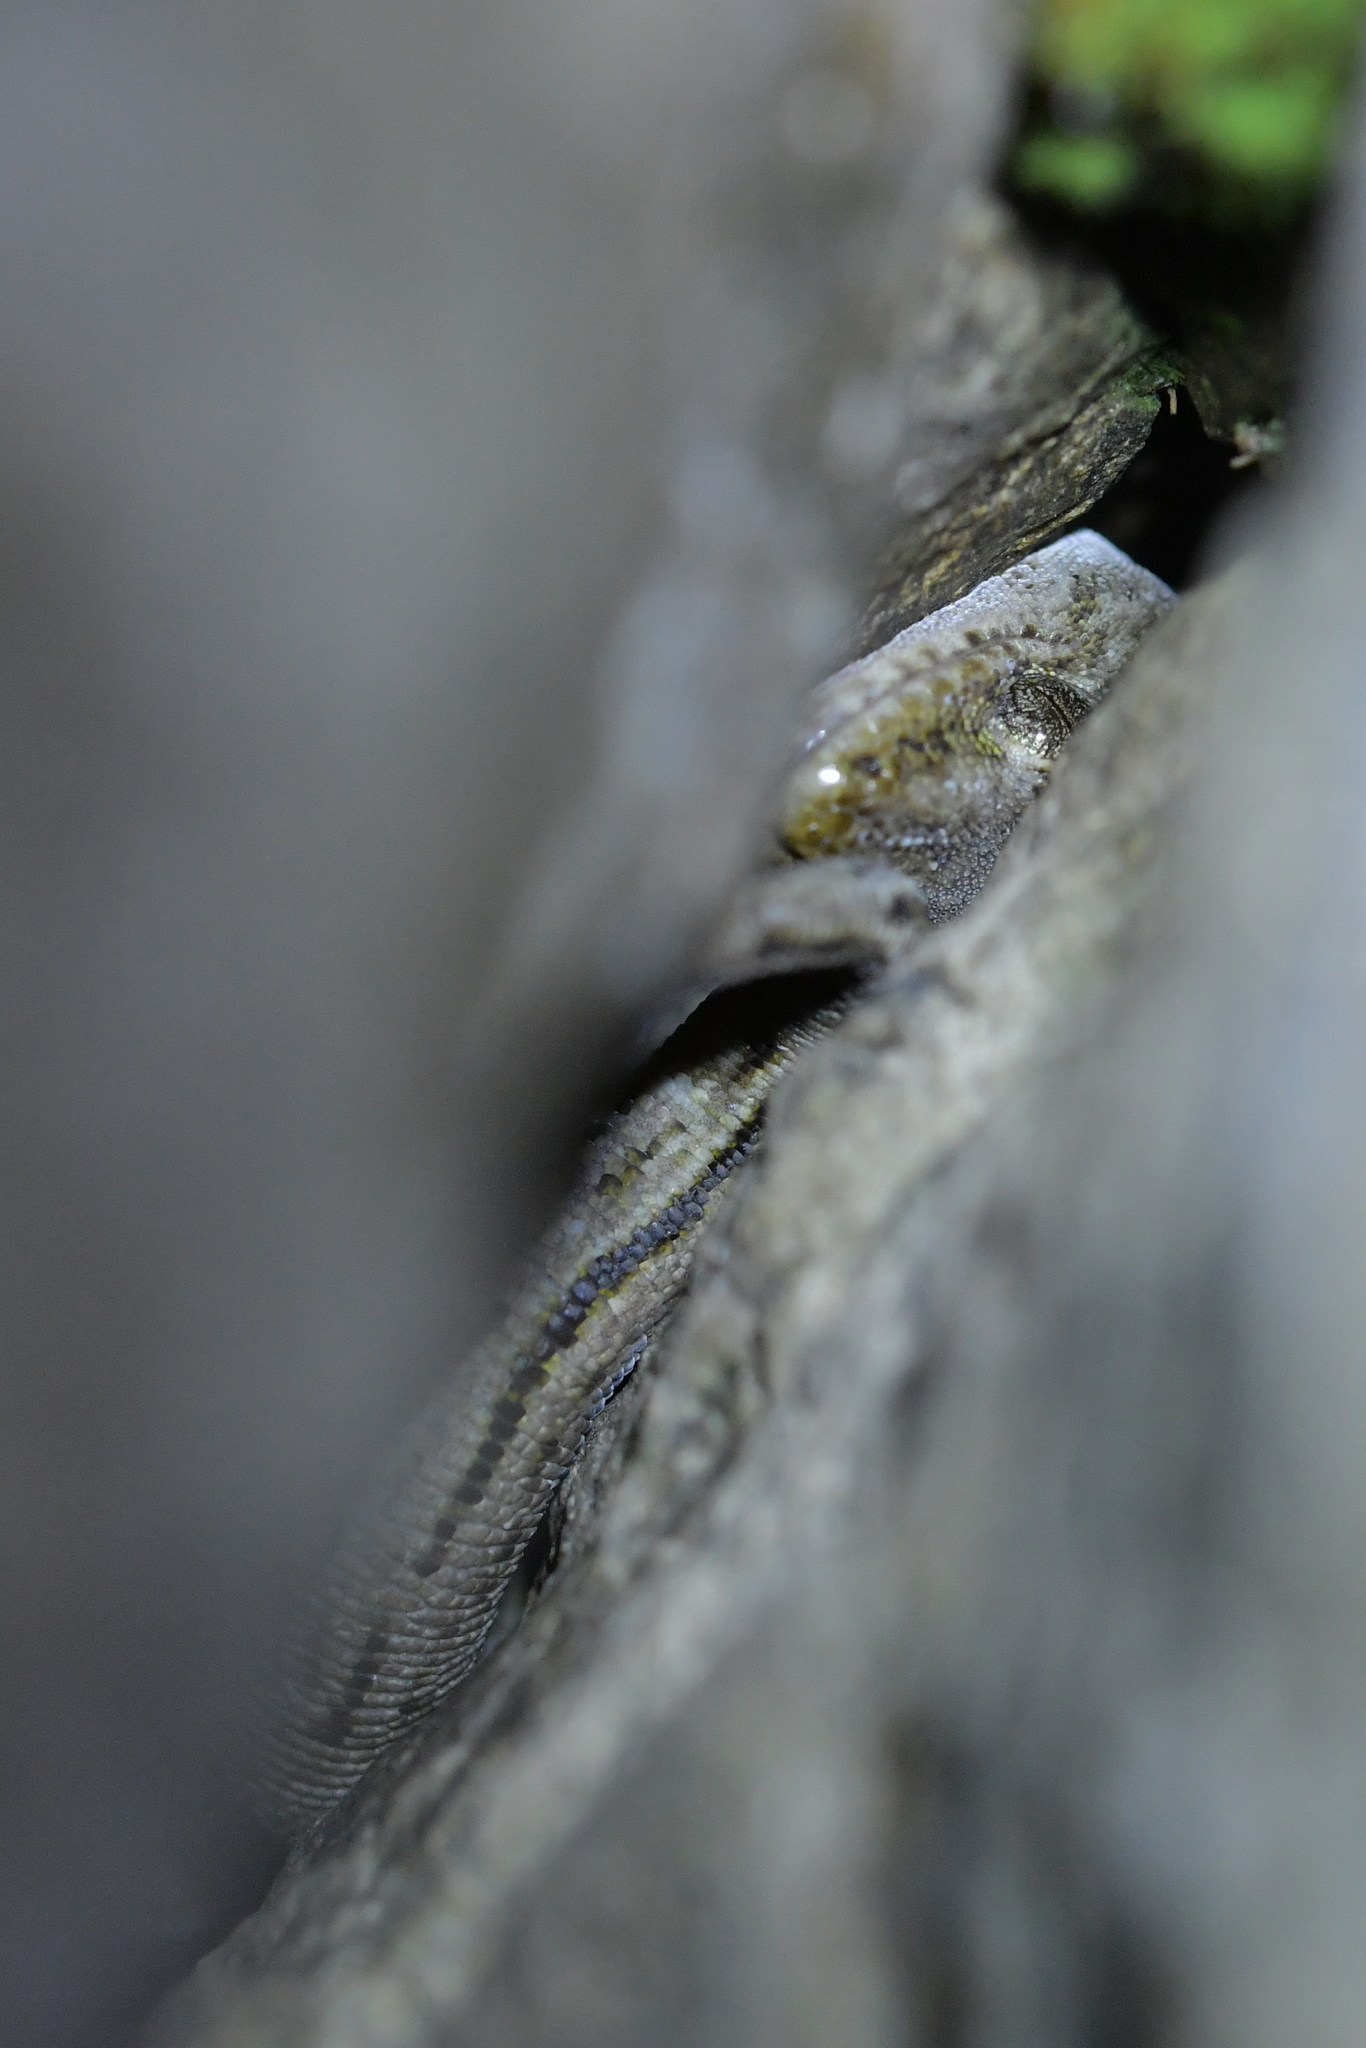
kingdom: Animalia
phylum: Chordata
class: Squamata
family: Diplodactylidae
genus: Woodworthia
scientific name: Woodworthia
